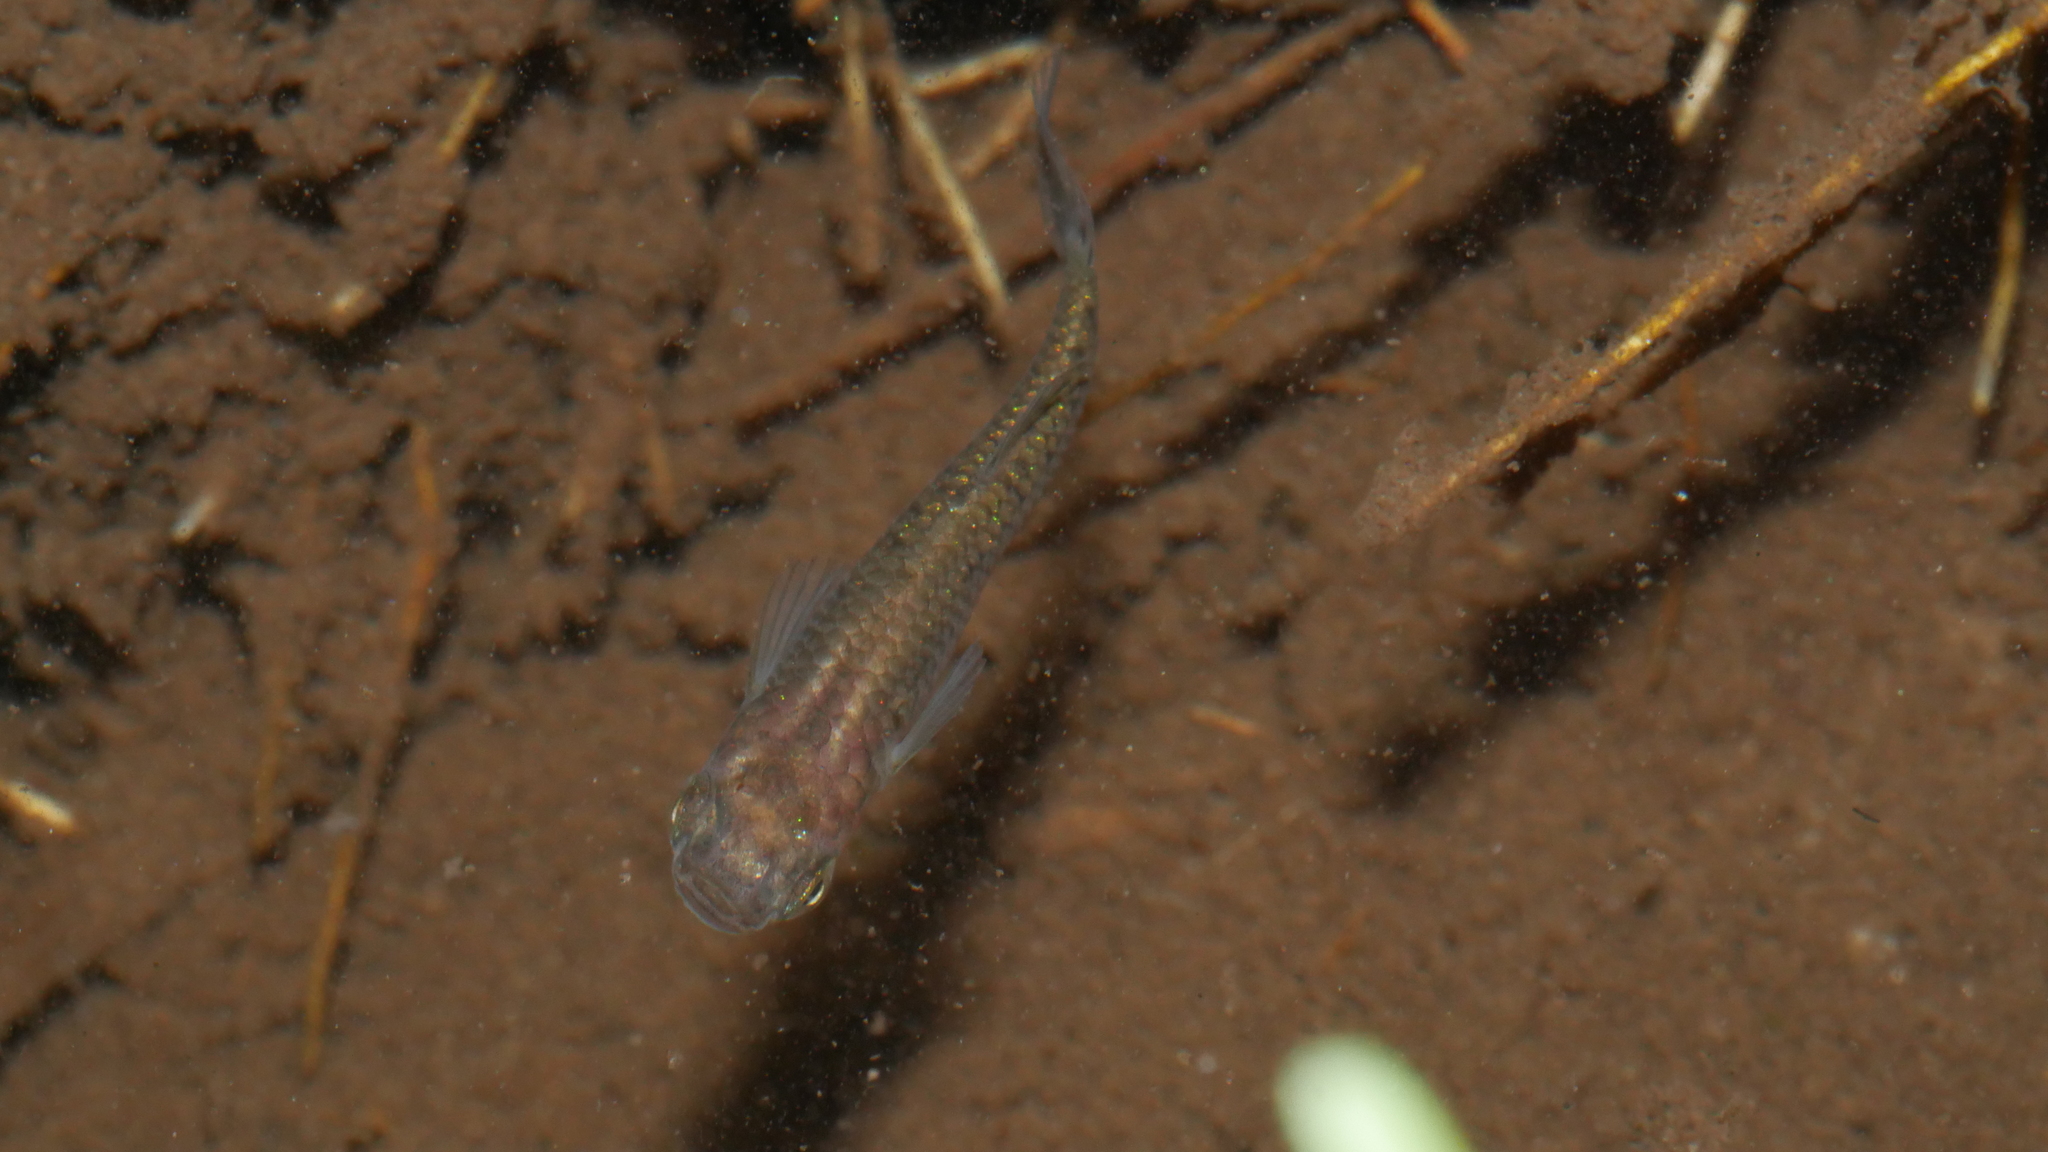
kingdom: Animalia
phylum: Chordata
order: Cyprinodontiformes
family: Poeciliidae
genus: Gambusia
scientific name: Gambusia holbrooki
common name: Eastern mosquitofish
